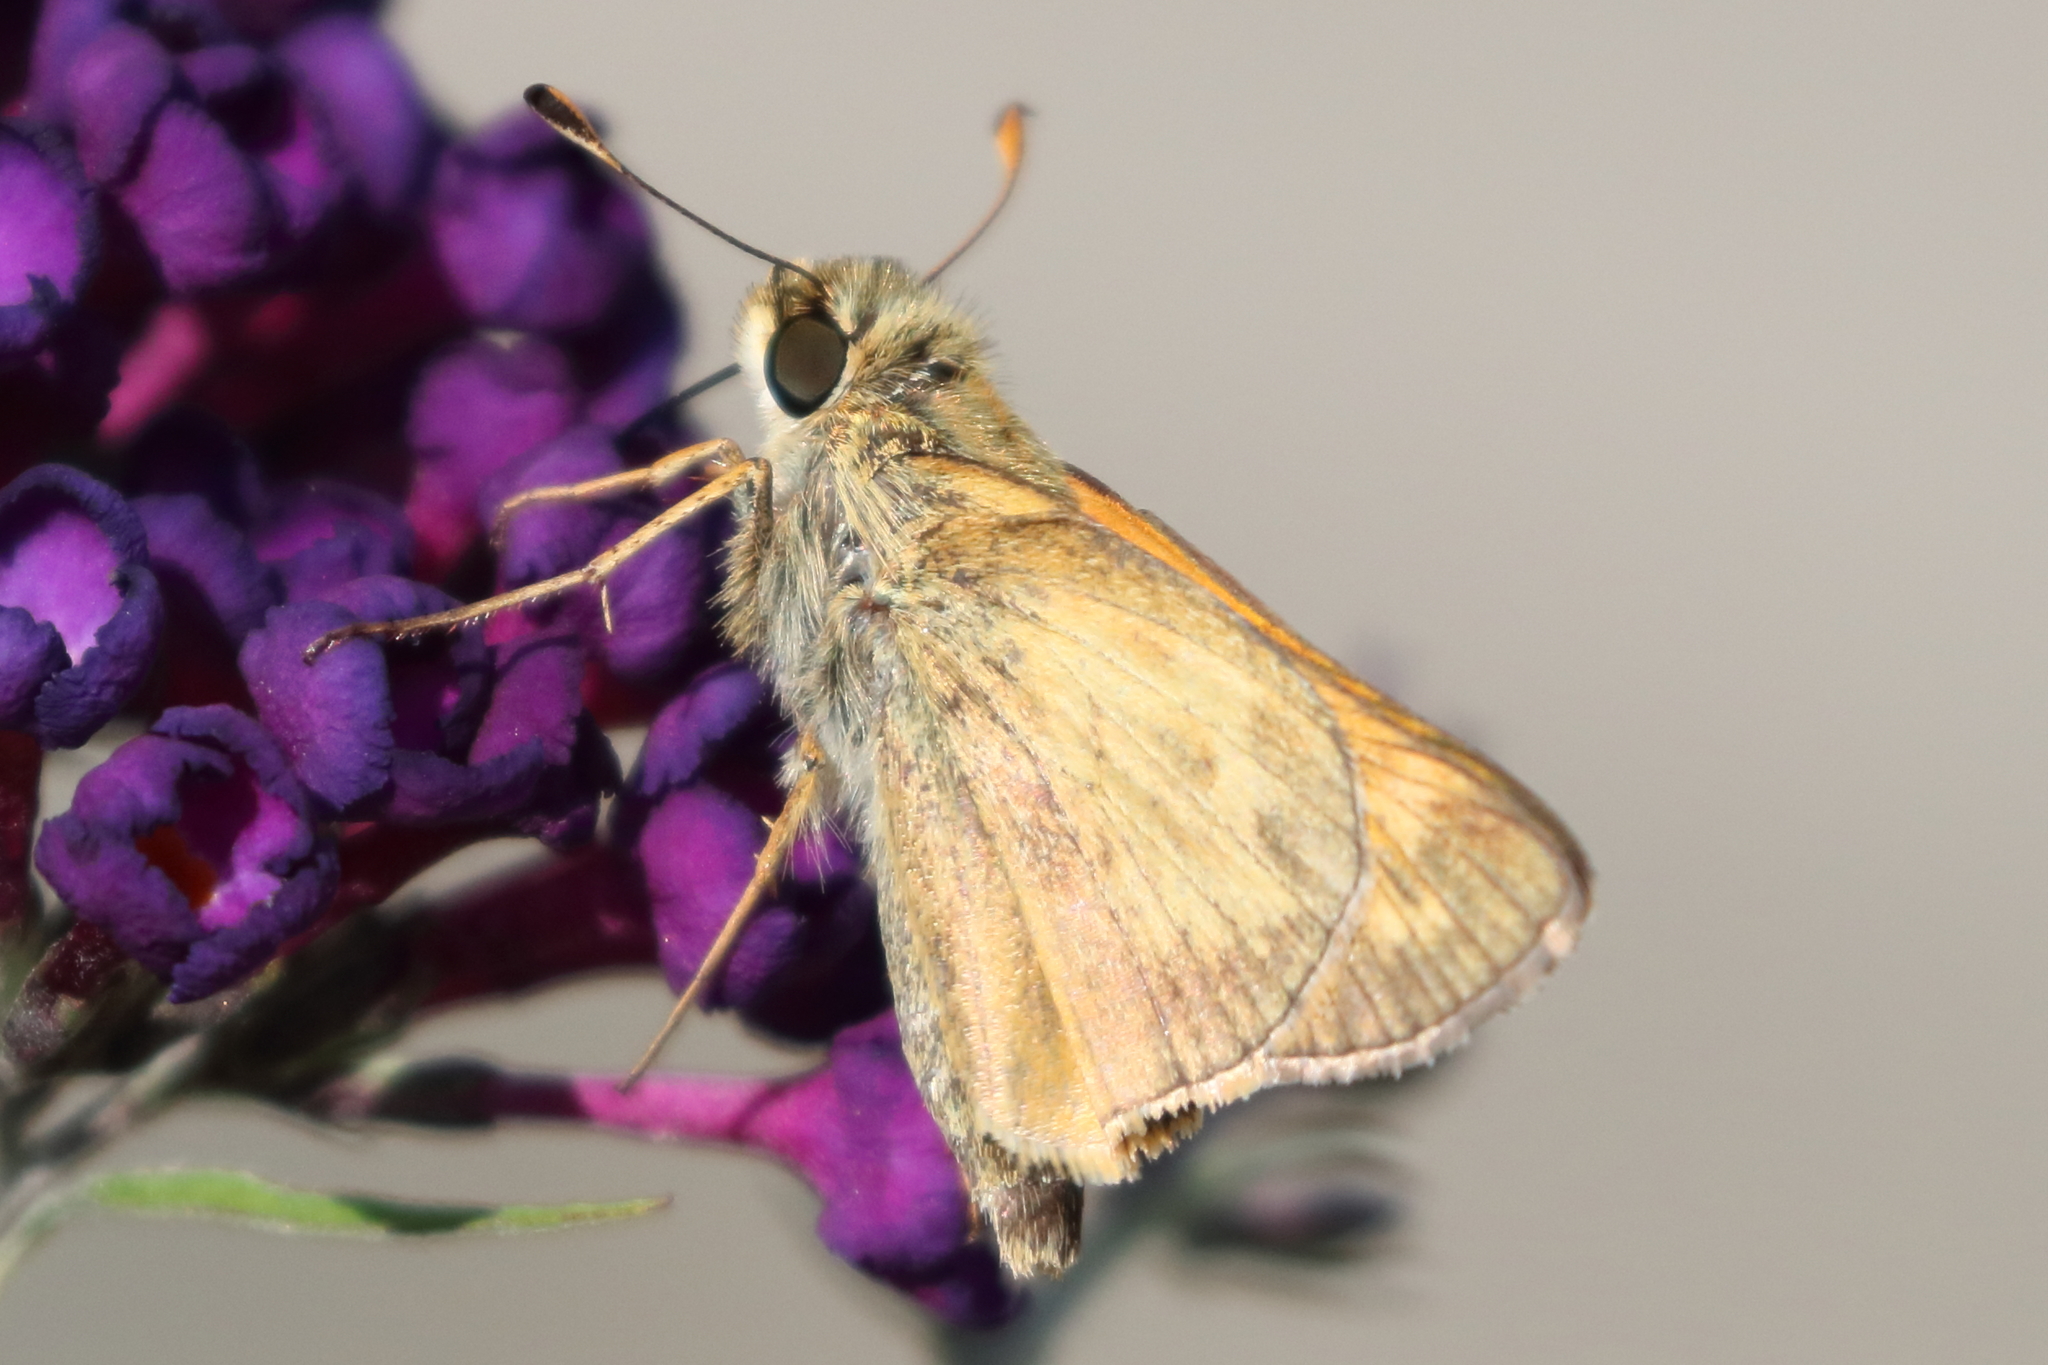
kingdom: Animalia
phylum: Arthropoda
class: Insecta
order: Lepidoptera
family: Hesperiidae
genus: Atalopedes
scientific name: Atalopedes
